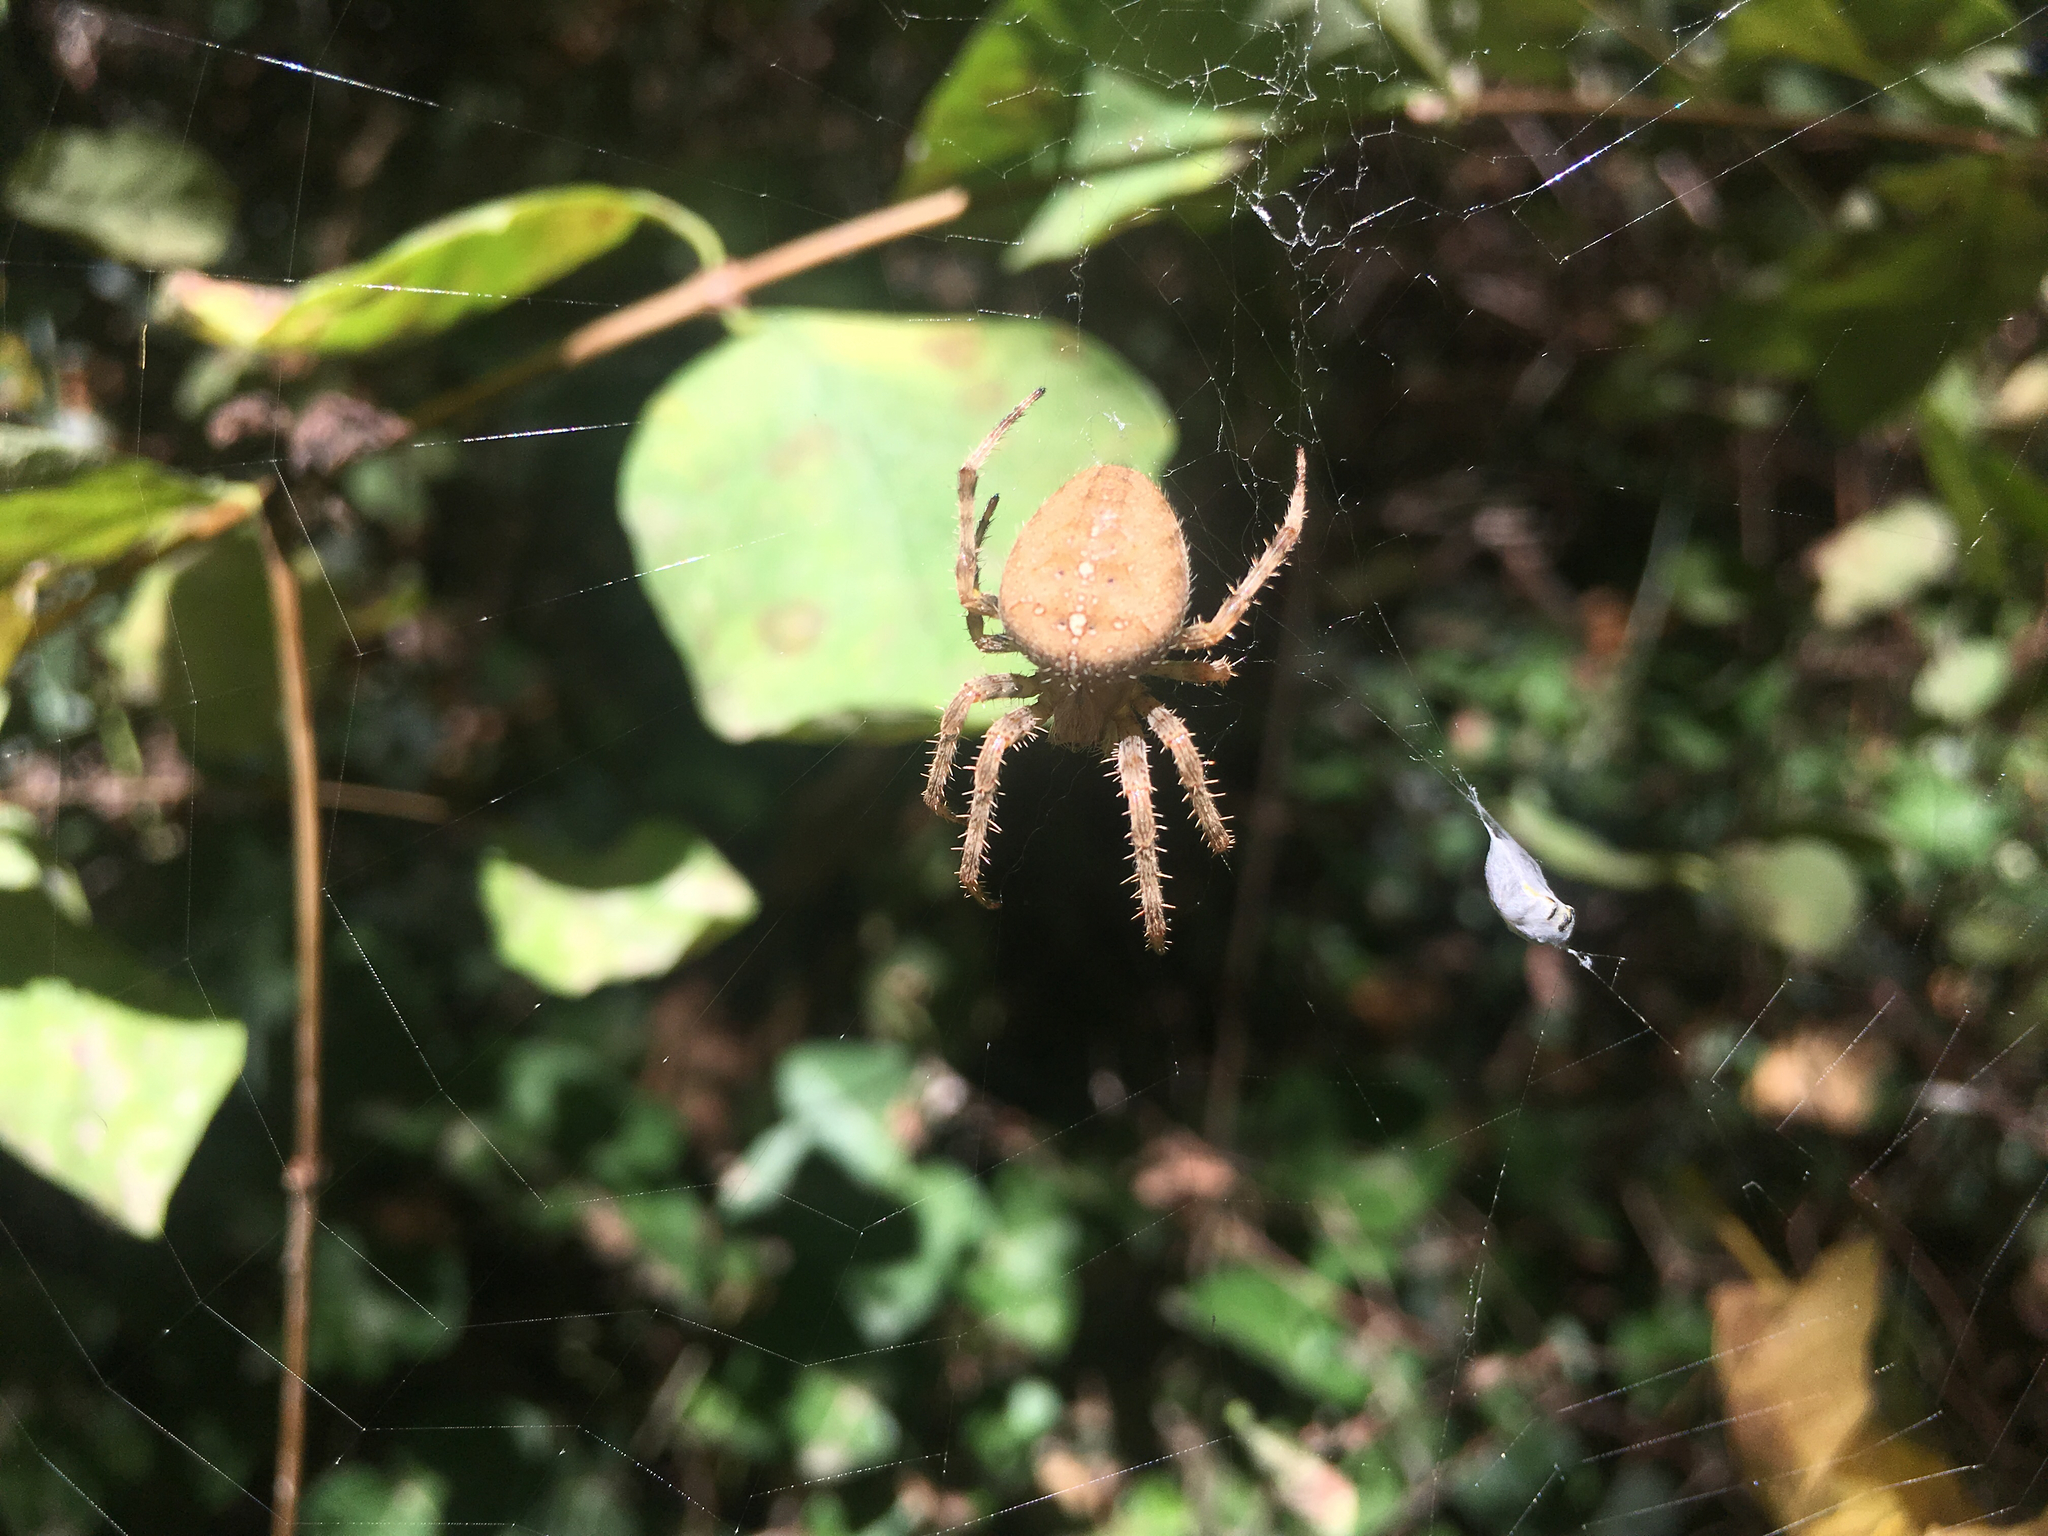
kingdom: Animalia
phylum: Arthropoda
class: Arachnida
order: Araneae
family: Araneidae
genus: Araneus
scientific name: Araneus diadematus
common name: Cross orbweaver
